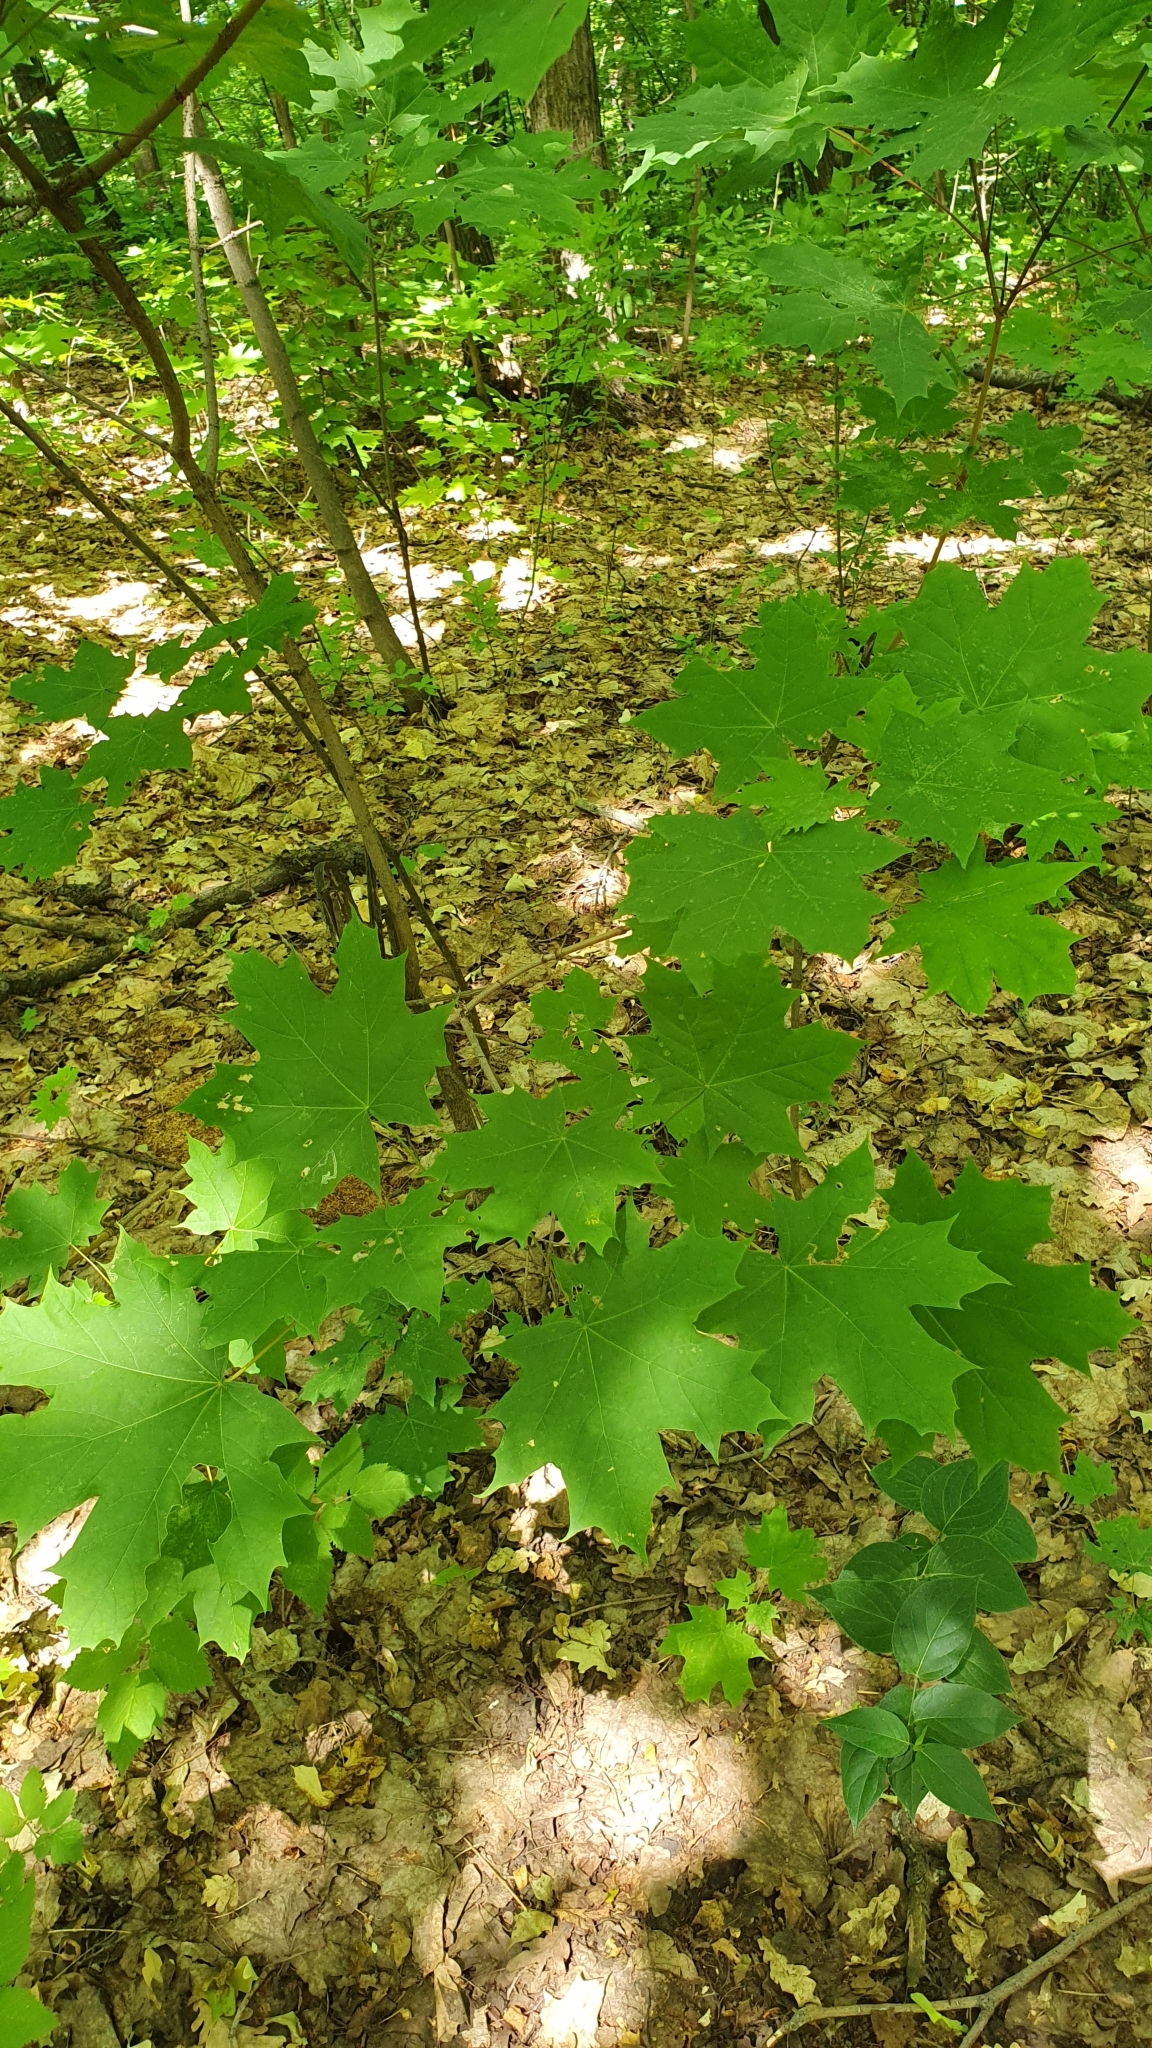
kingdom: Plantae
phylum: Tracheophyta
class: Magnoliopsida
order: Sapindales
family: Sapindaceae
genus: Acer
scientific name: Acer platanoides
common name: Norway maple
